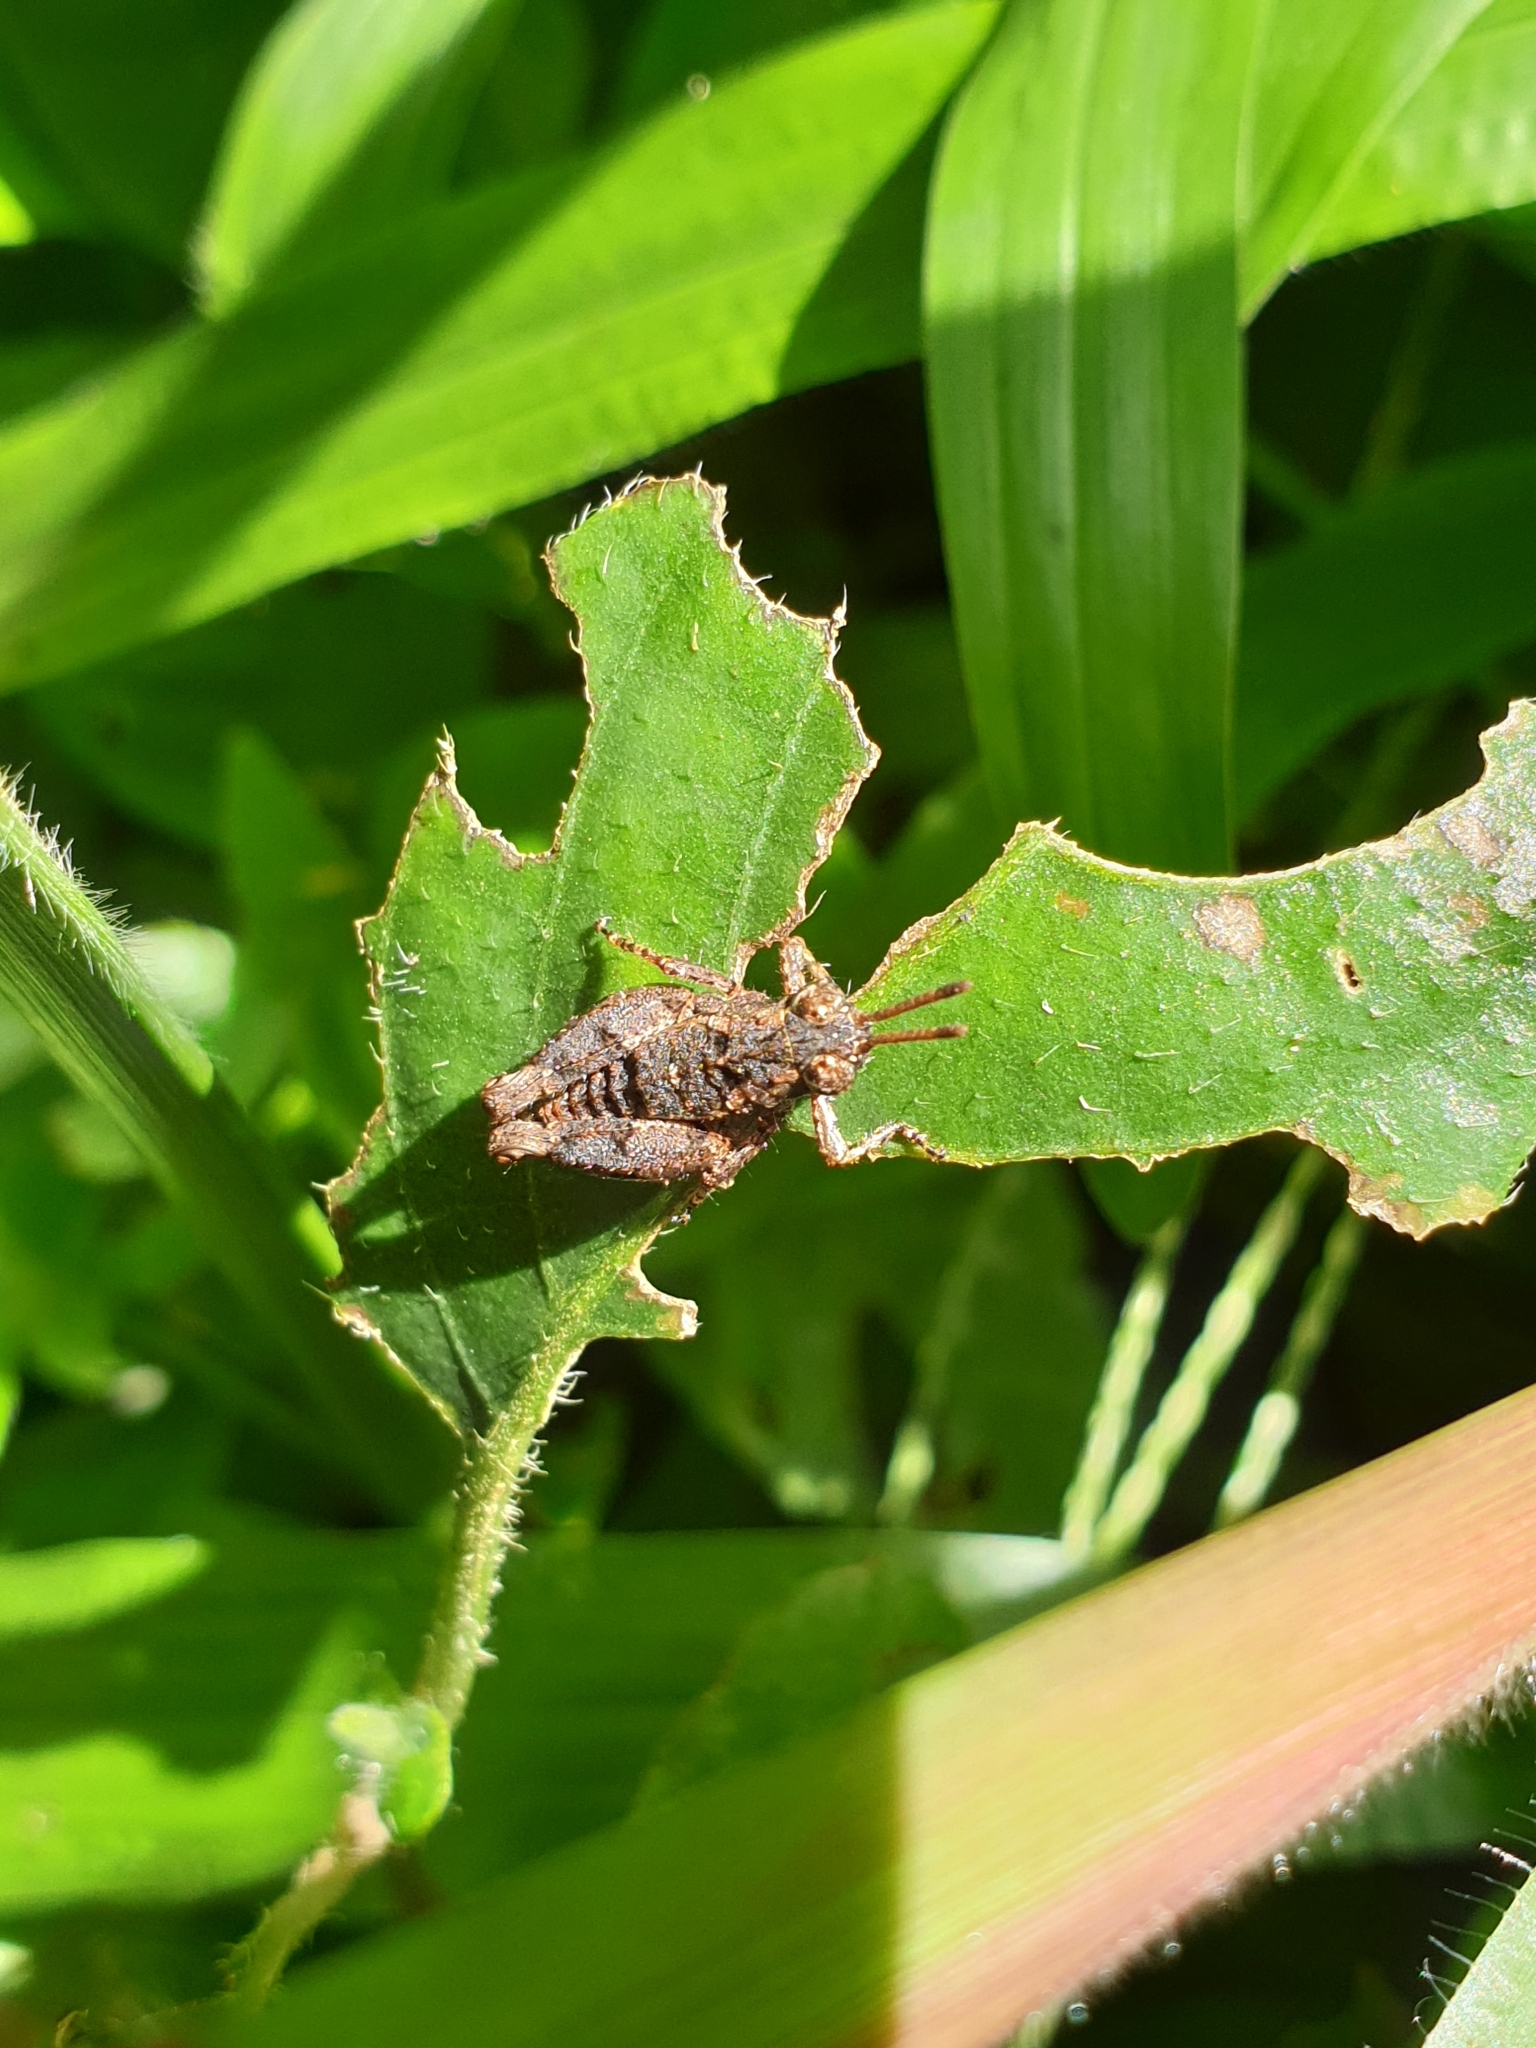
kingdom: Animalia
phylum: Arthropoda
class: Insecta
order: Orthoptera
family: Acrididae
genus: Dubitacris
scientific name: Dubitacris robustus
